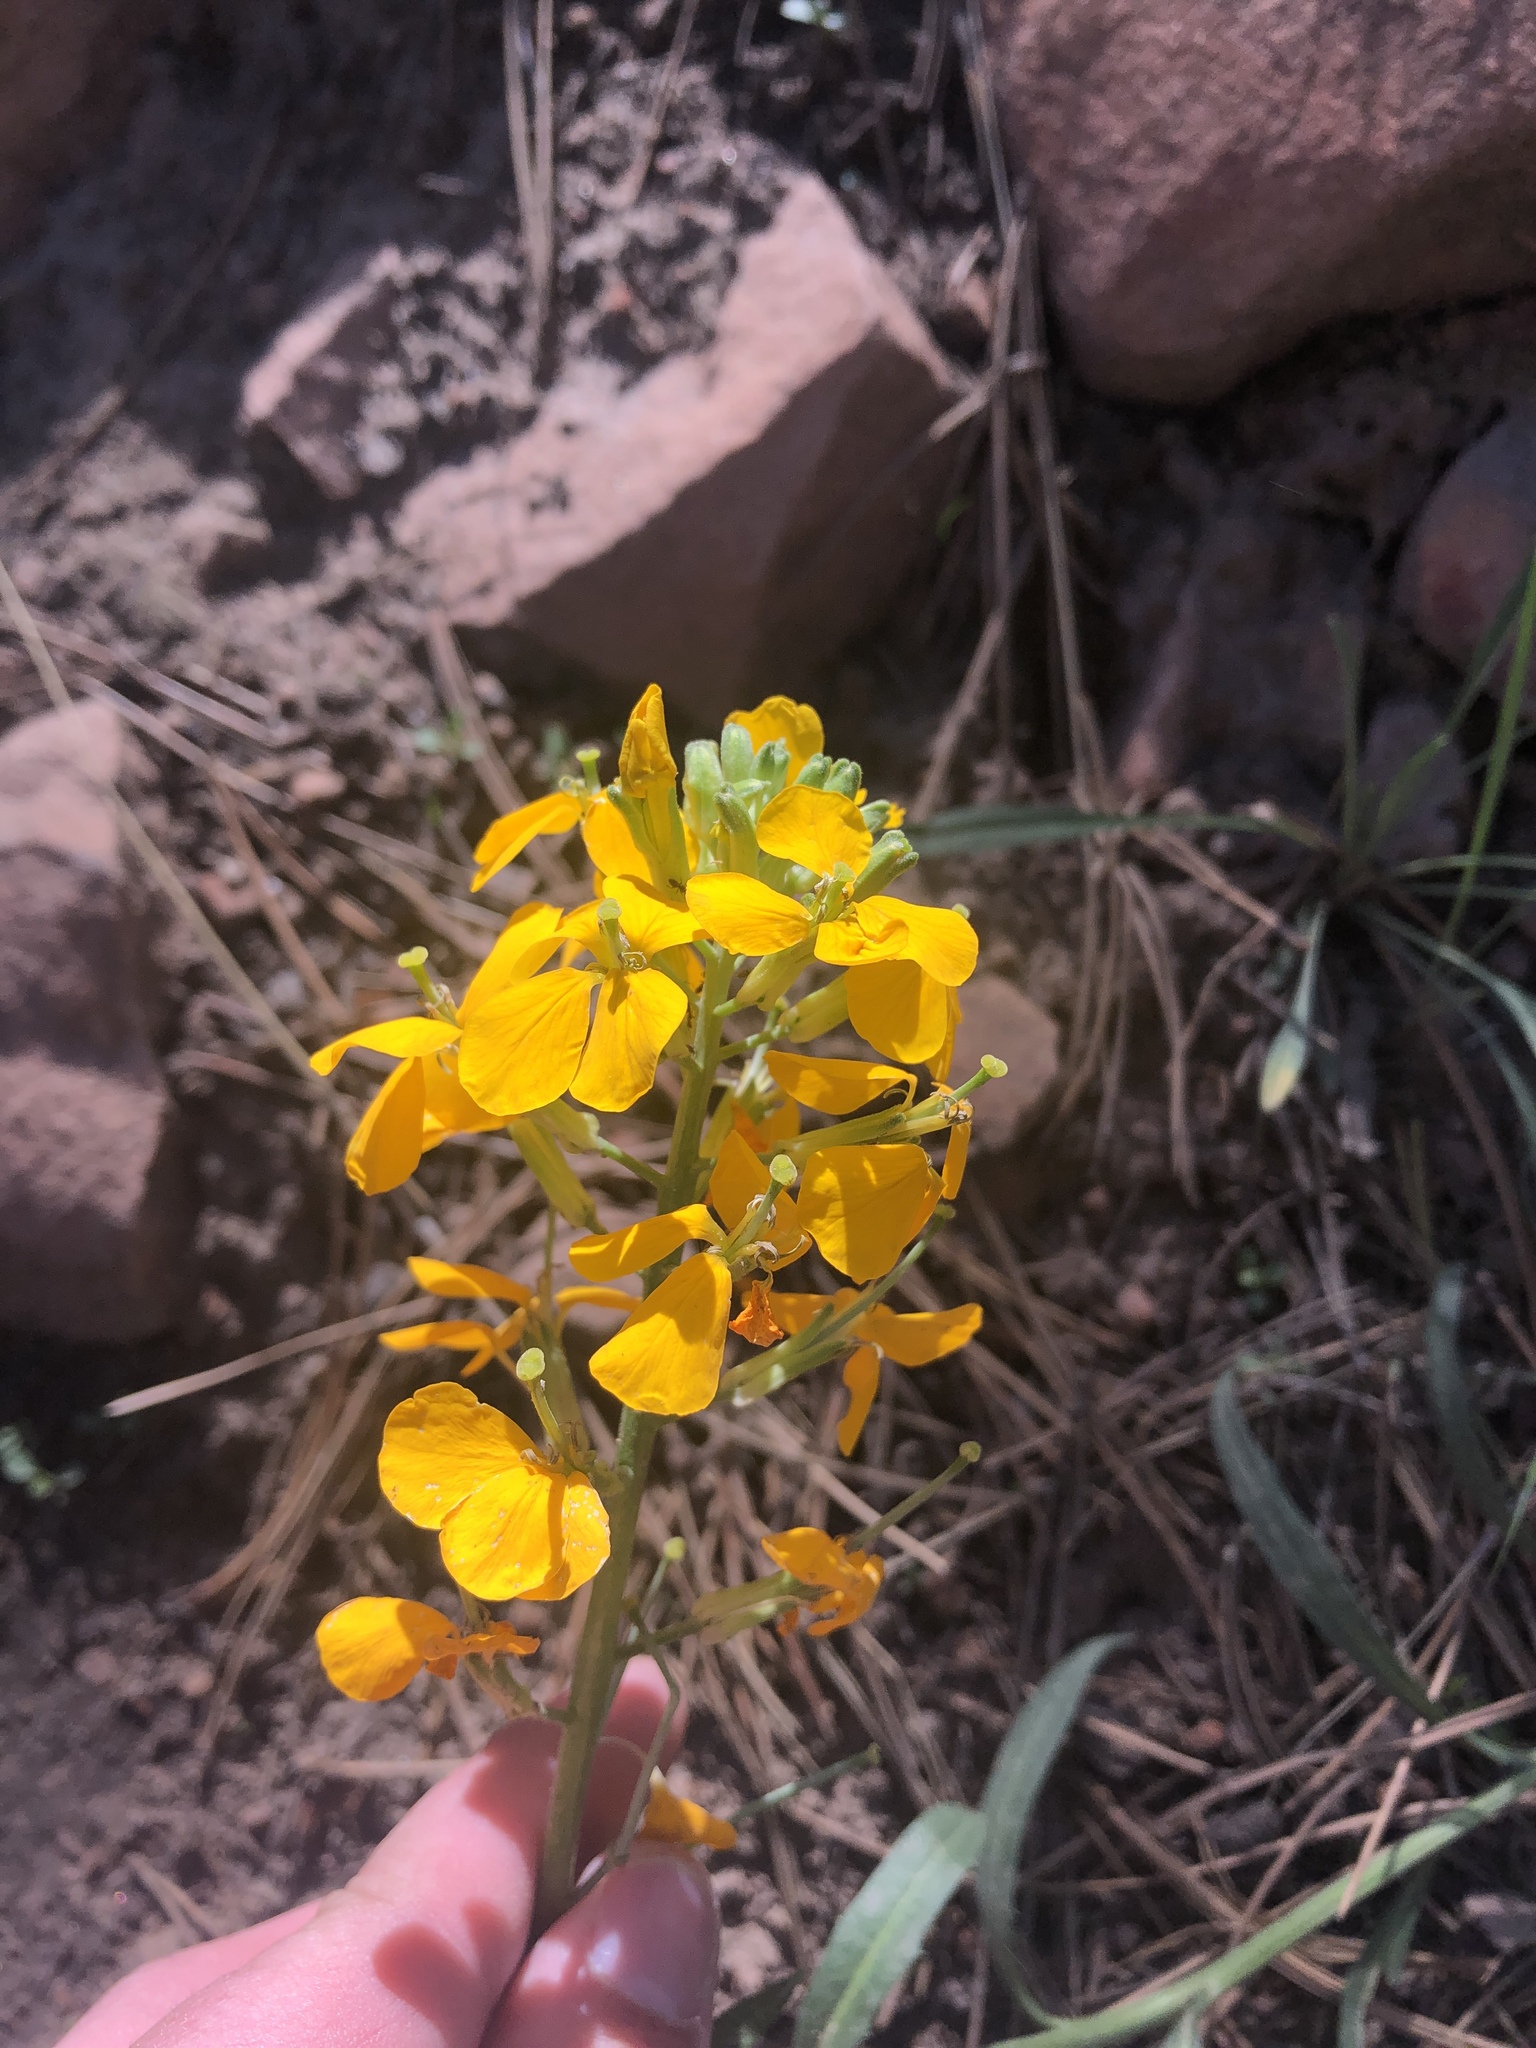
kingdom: Plantae
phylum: Tracheophyta
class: Magnoliopsida
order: Brassicales
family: Brassicaceae
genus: Erysimum
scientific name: Erysimum capitatum
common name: Western wallflower
